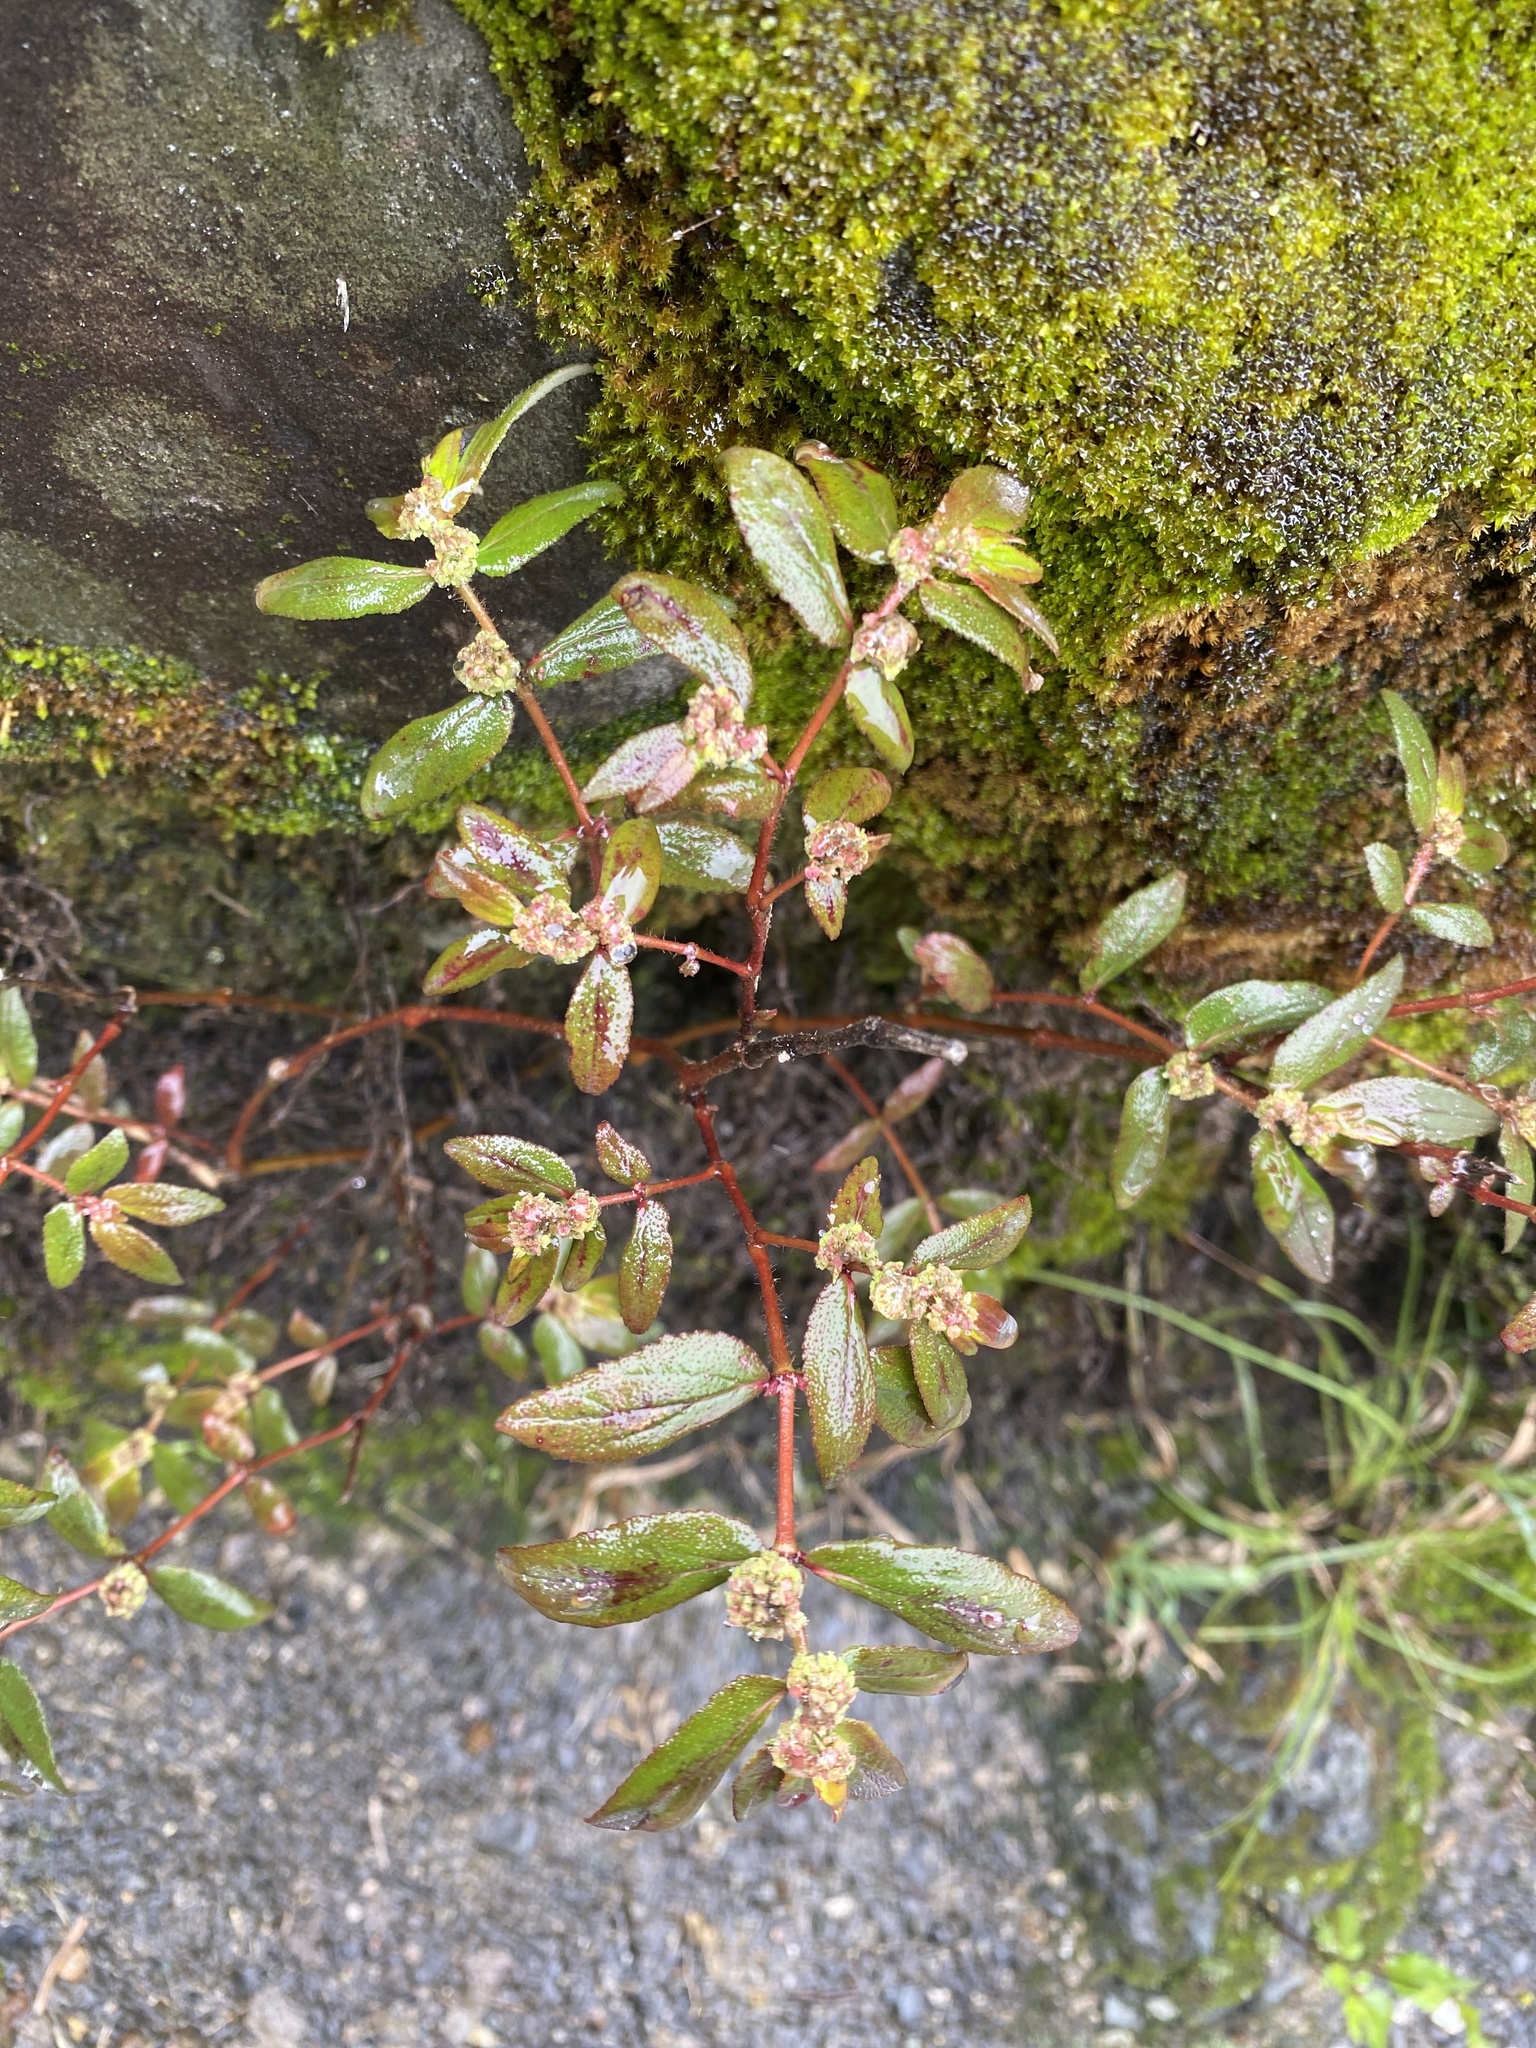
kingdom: Plantae
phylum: Tracheophyta
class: Magnoliopsida
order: Malpighiales
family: Euphorbiaceae
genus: Euphorbia
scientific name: Euphorbia hirta
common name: Pillpod sandmat
